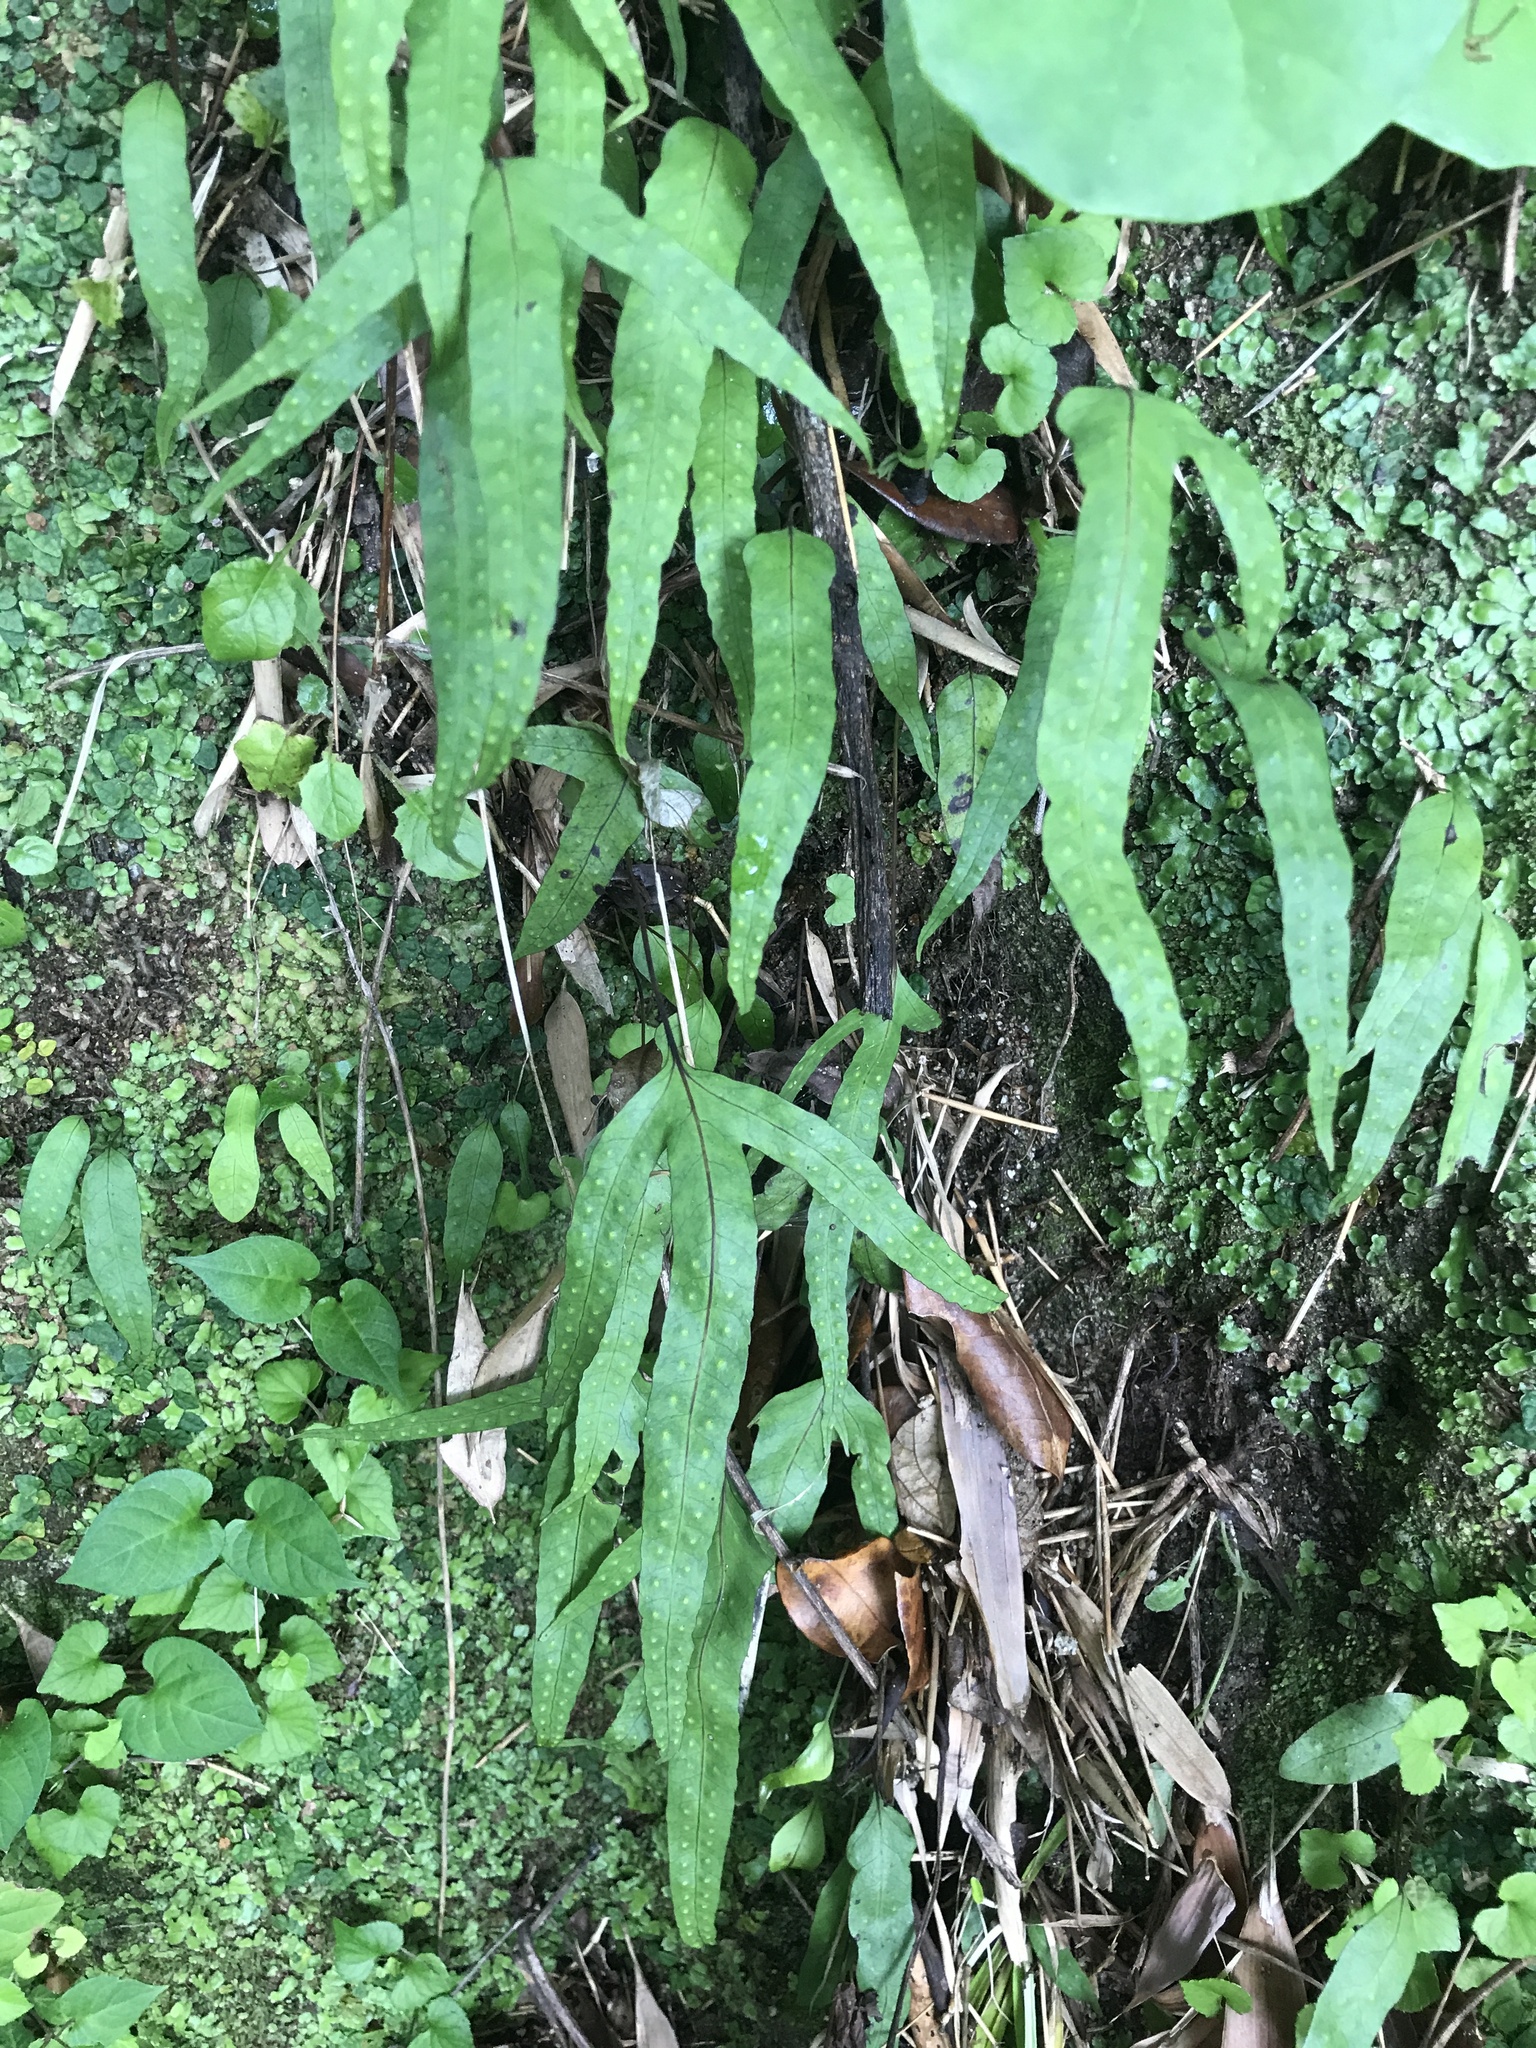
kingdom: Plantae
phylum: Tracheophyta
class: Polypodiopsida
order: Polypodiales
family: Polypodiaceae
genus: Selliguea
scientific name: Selliguea hastata
